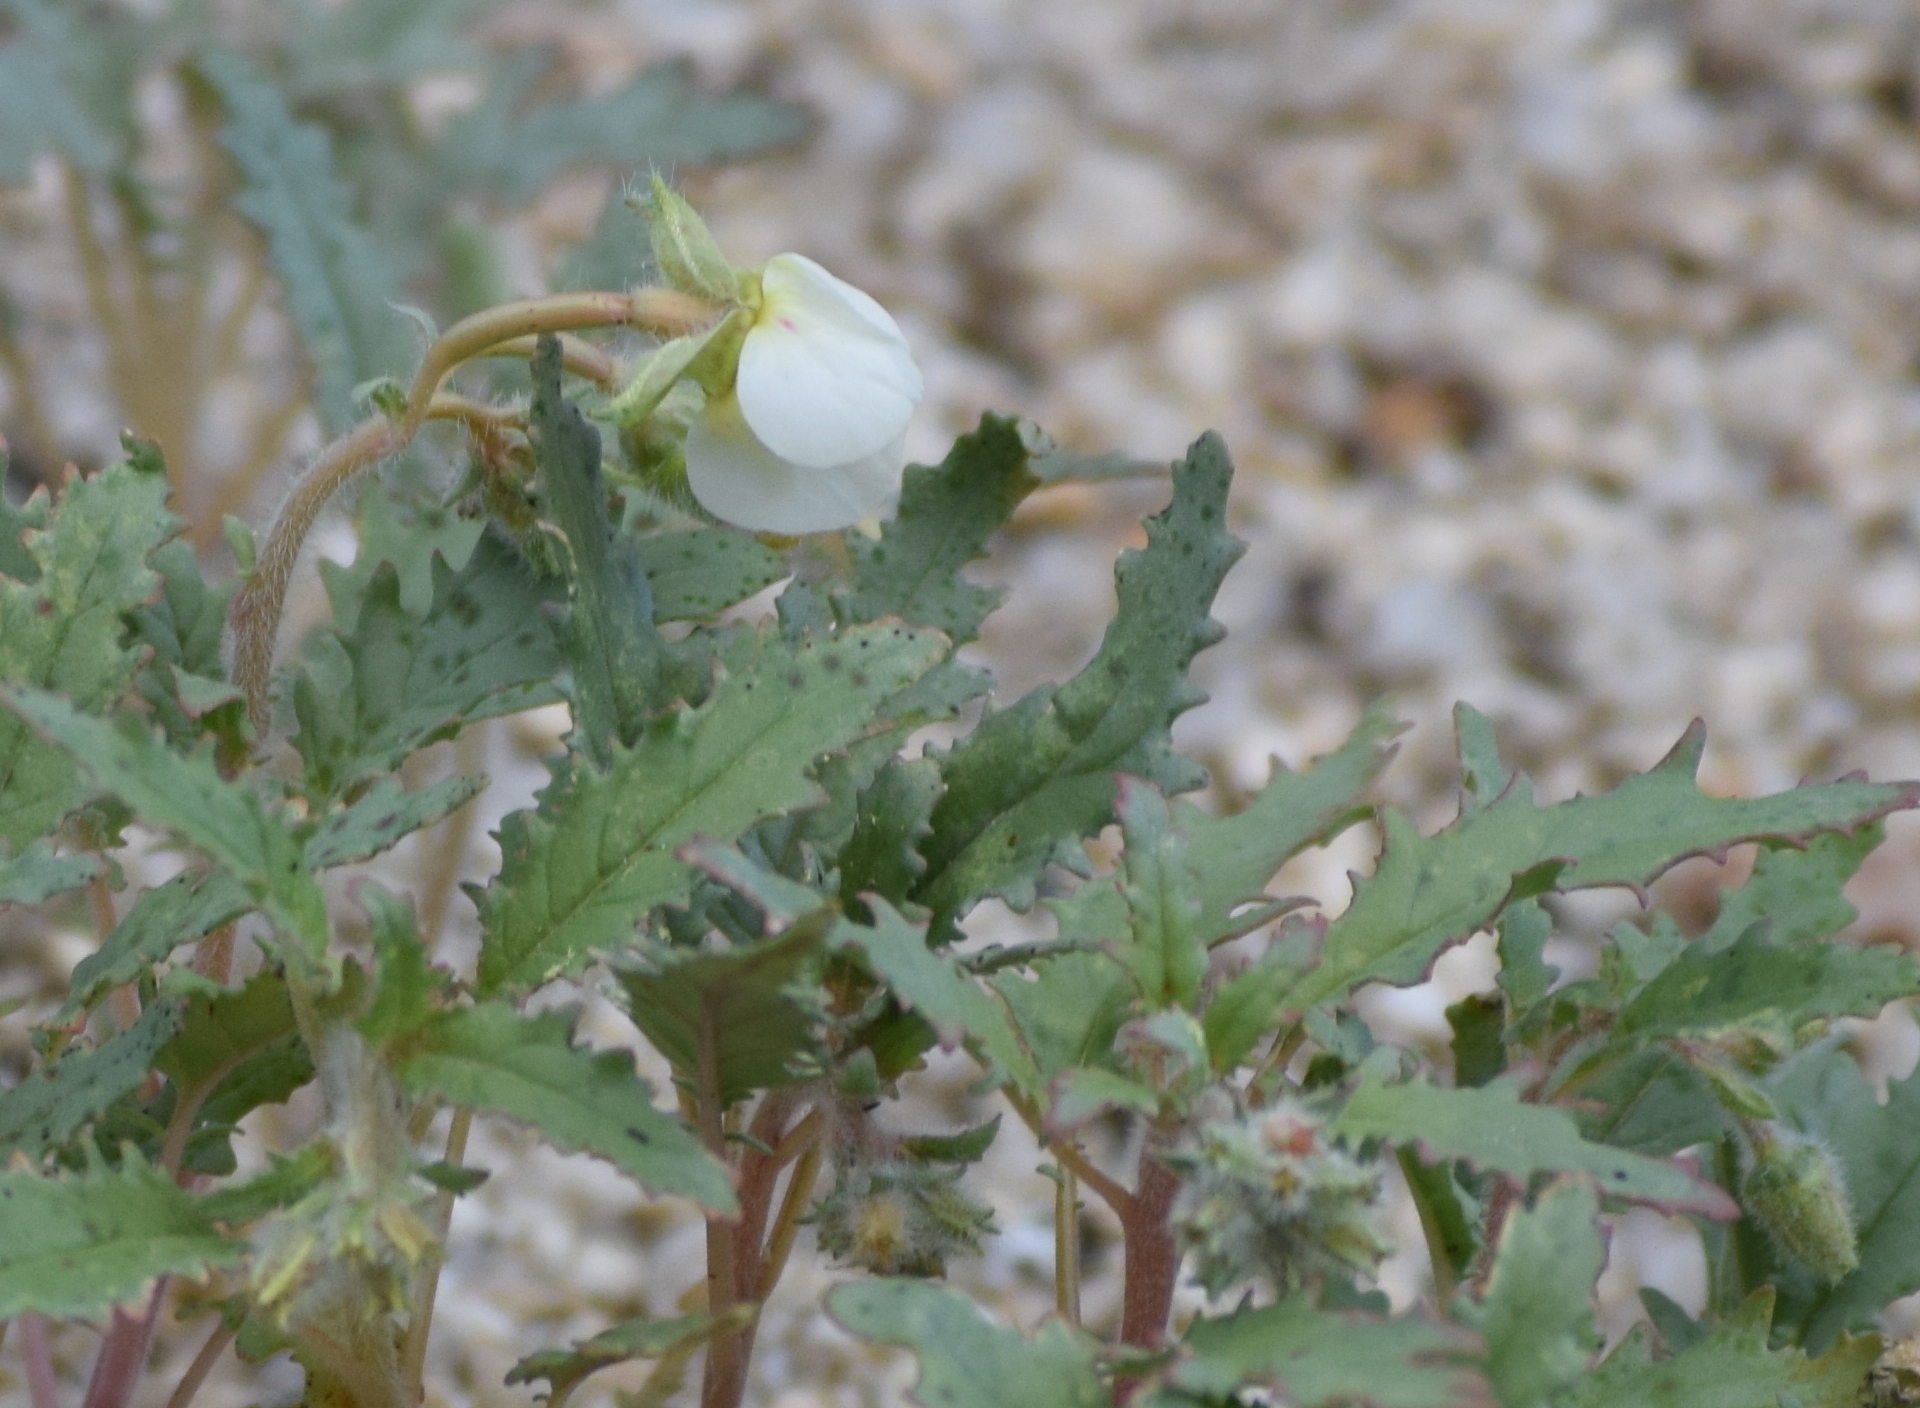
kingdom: Plantae
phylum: Tracheophyta
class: Magnoliopsida
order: Myrtales
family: Onagraceae
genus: Chylismia
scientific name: Chylismia claviformis
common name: Browneyes
